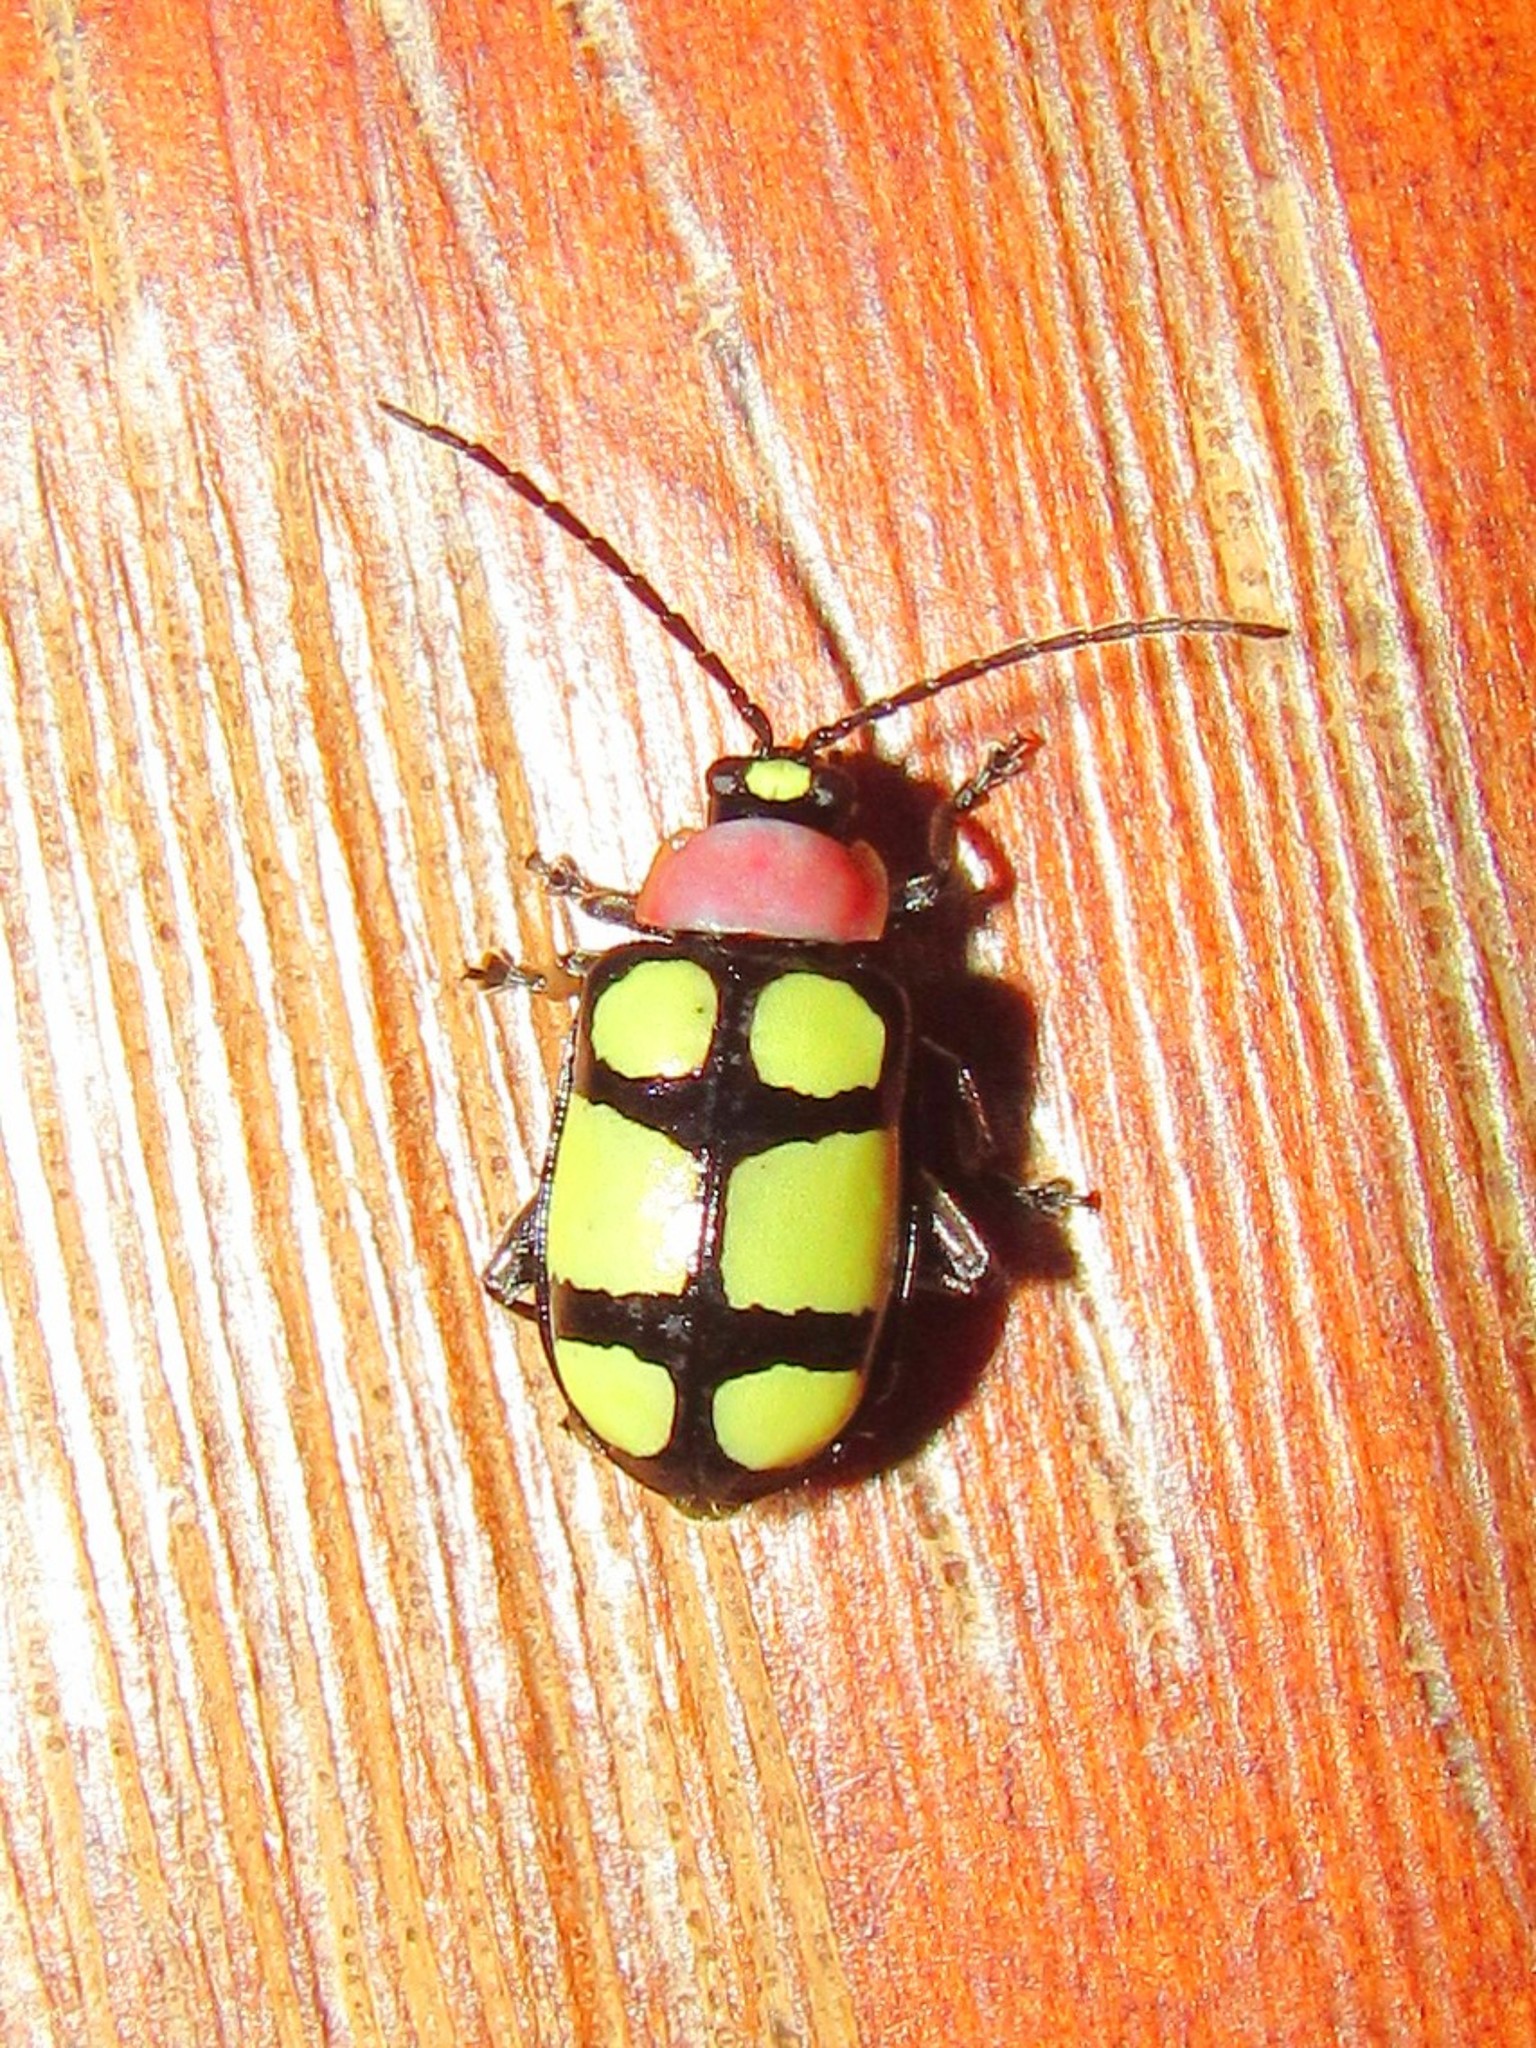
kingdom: Animalia
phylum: Arthropoda
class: Insecta
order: Coleoptera
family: Chrysomelidae
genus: Omophoita
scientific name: Omophoita
